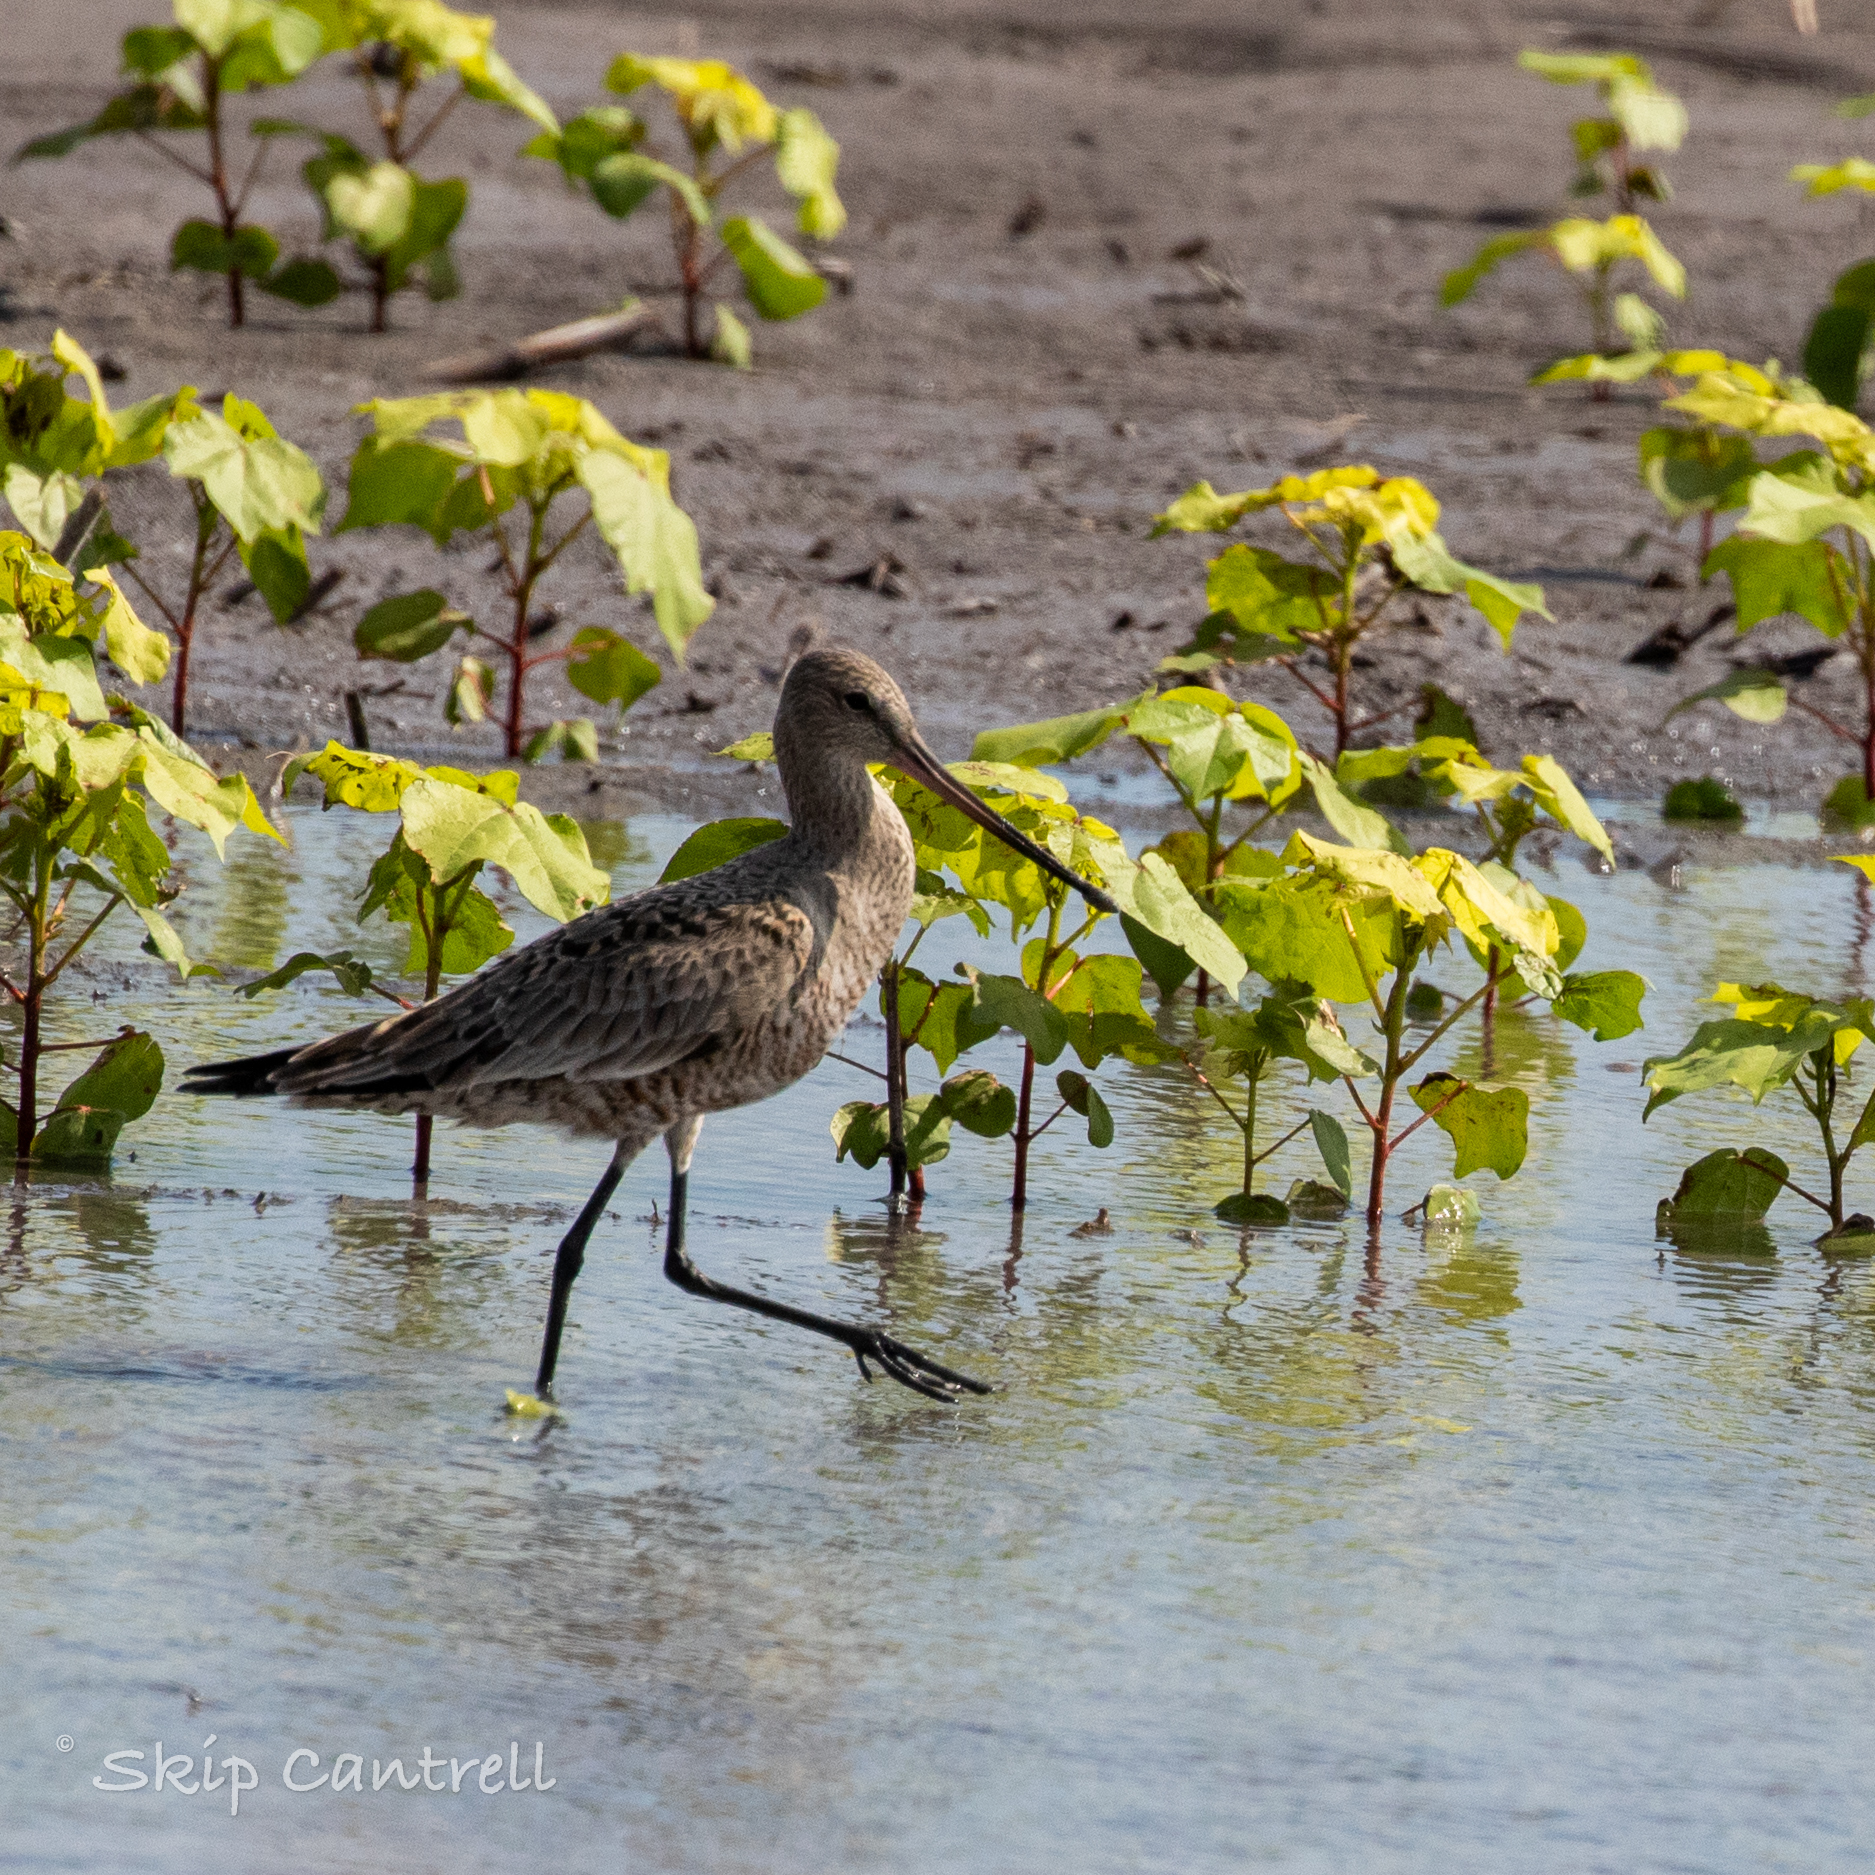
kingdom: Animalia
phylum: Chordata
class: Aves
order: Charadriiformes
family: Scolopacidae
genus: Limosa
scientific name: Limosa haemastica
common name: Hudsonian godwit
